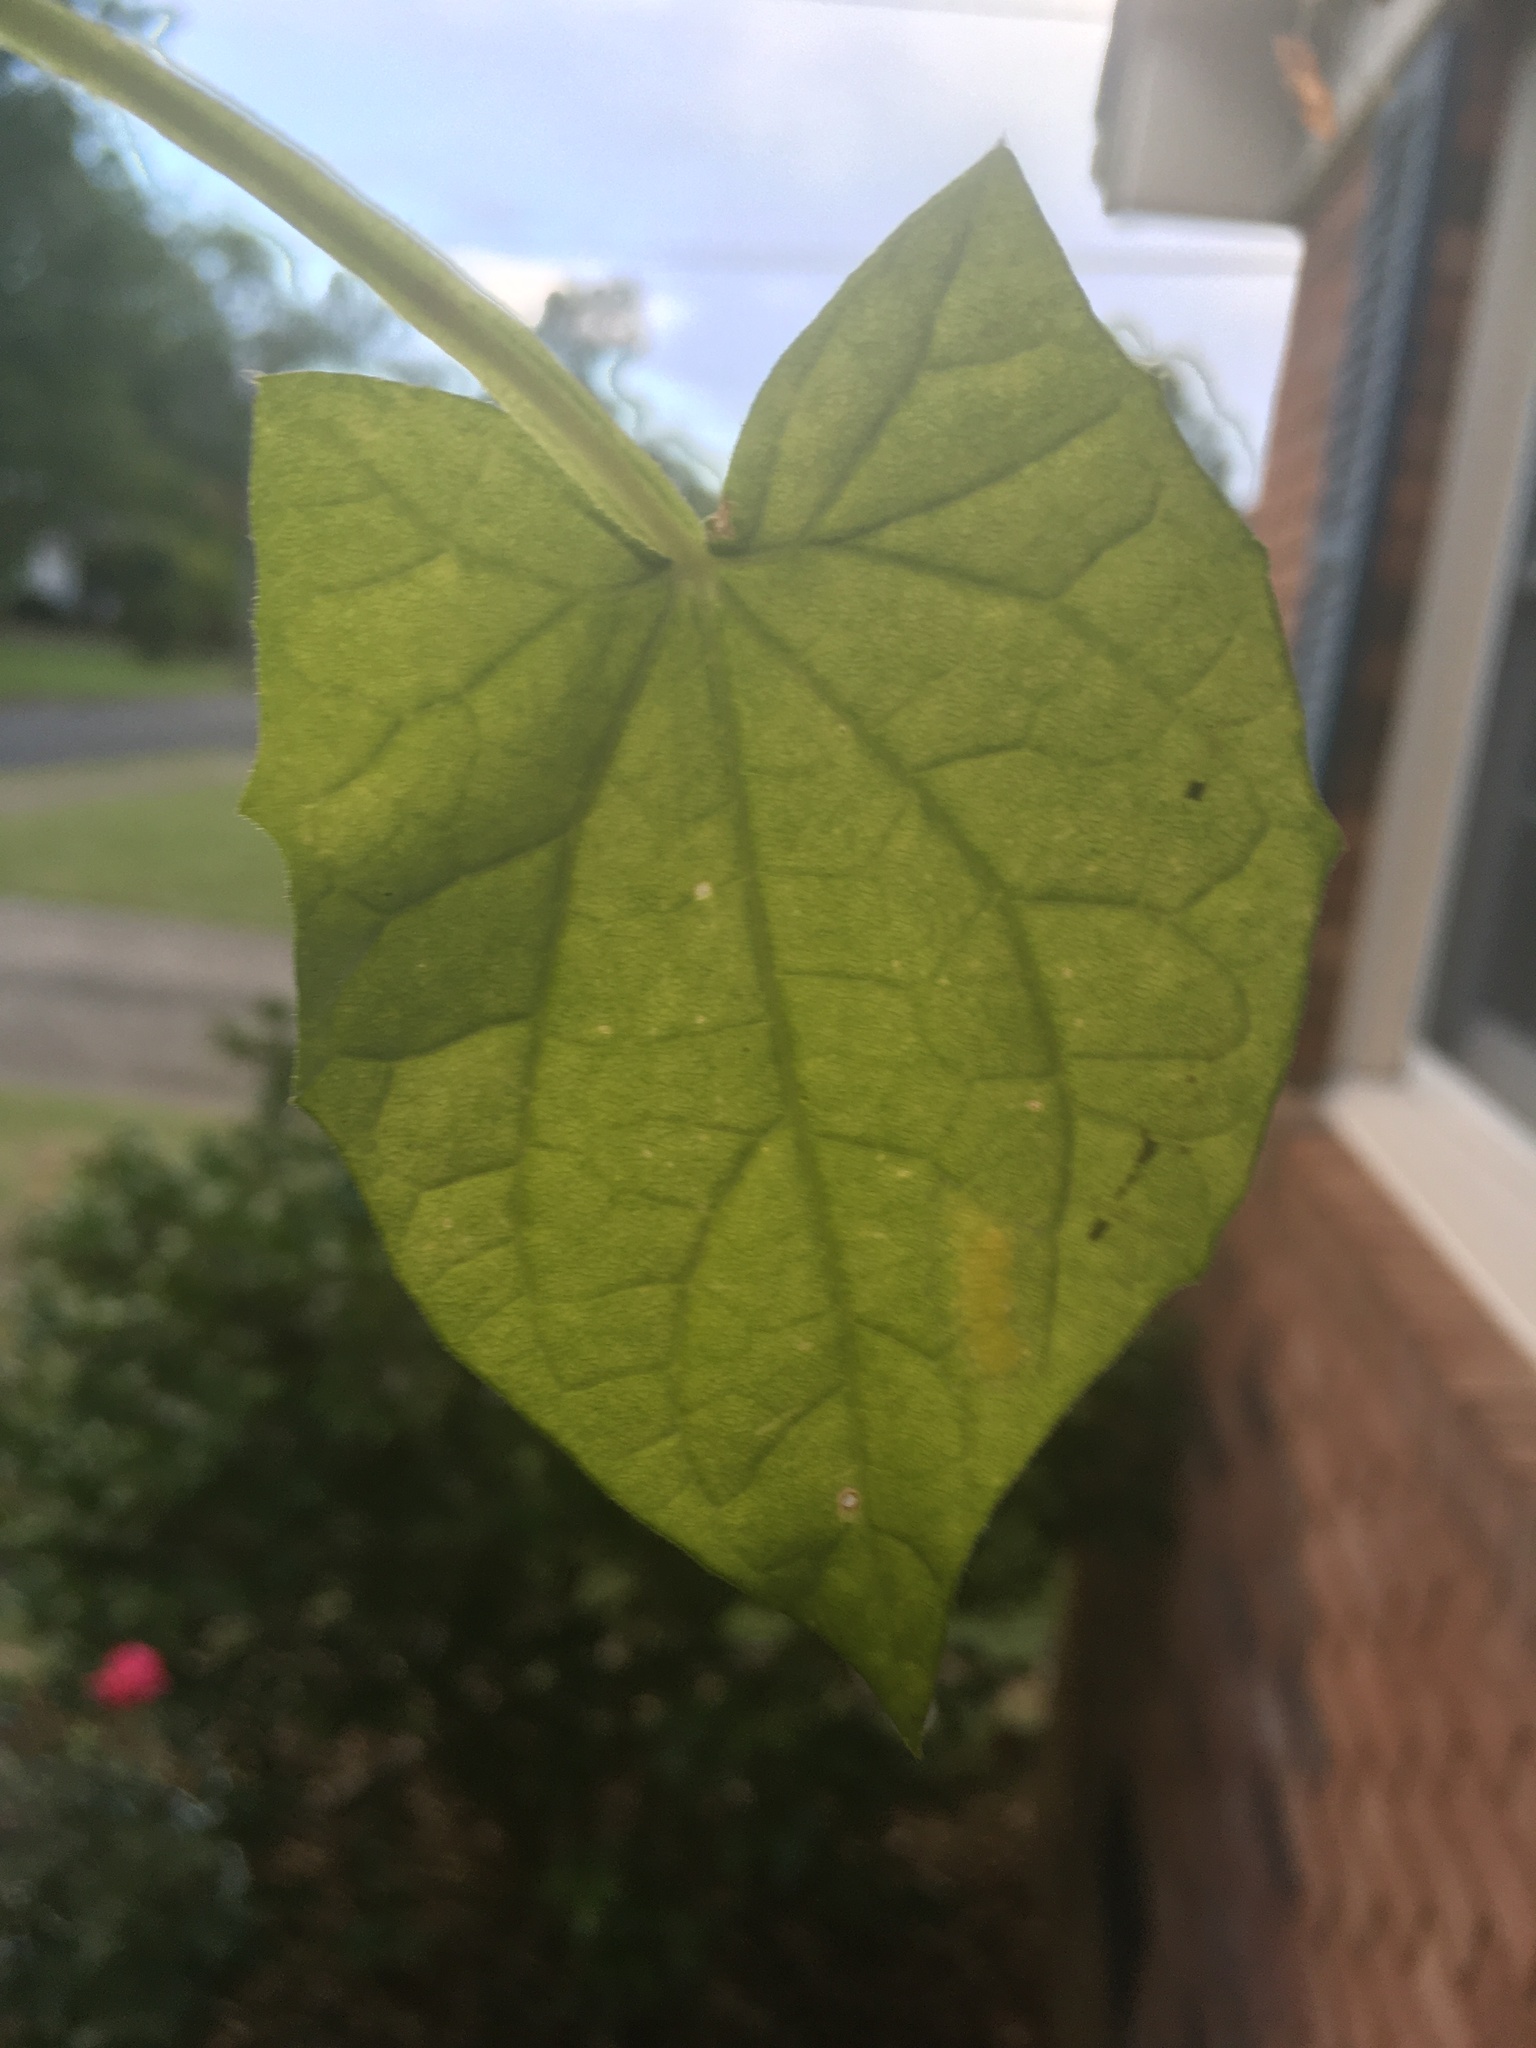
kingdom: Animalia
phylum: Arthropoda
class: Insecta
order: Hemiptera
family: Cicadellidae
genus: Homalodisca
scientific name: Homalodisca vitripennis
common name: Glassy-winged sharpshooter
